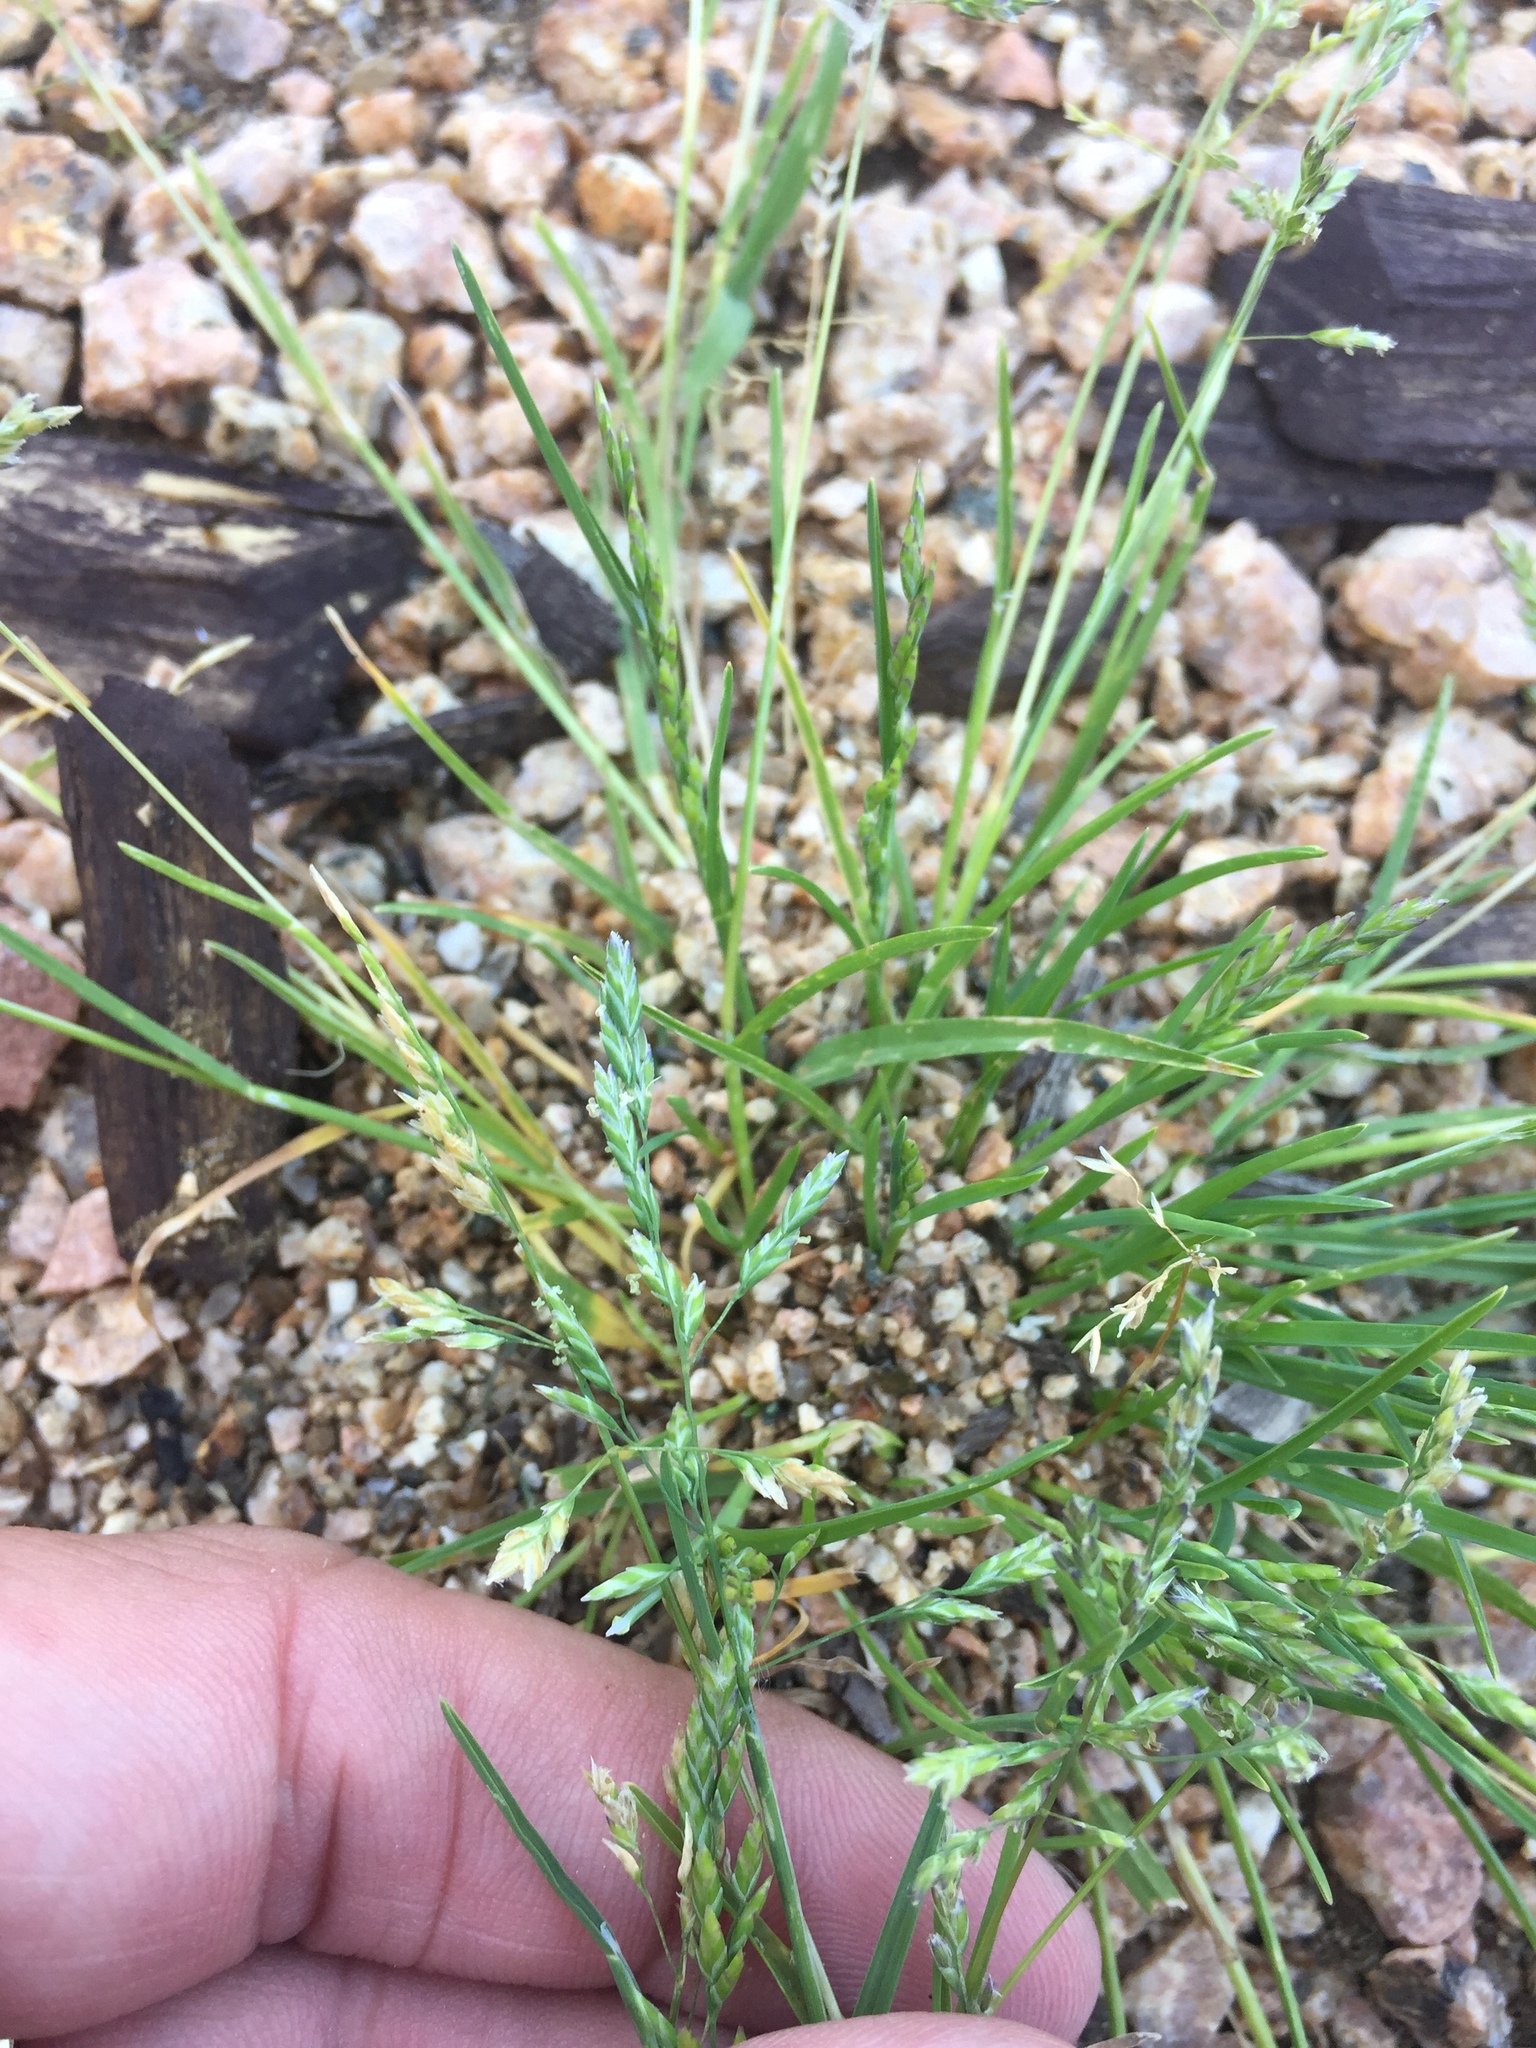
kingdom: Plantae
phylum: Tracheophyta
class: Liliopsida
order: Poales
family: Poaceae
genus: Poa
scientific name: Poa annua
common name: Annual bluegrass
